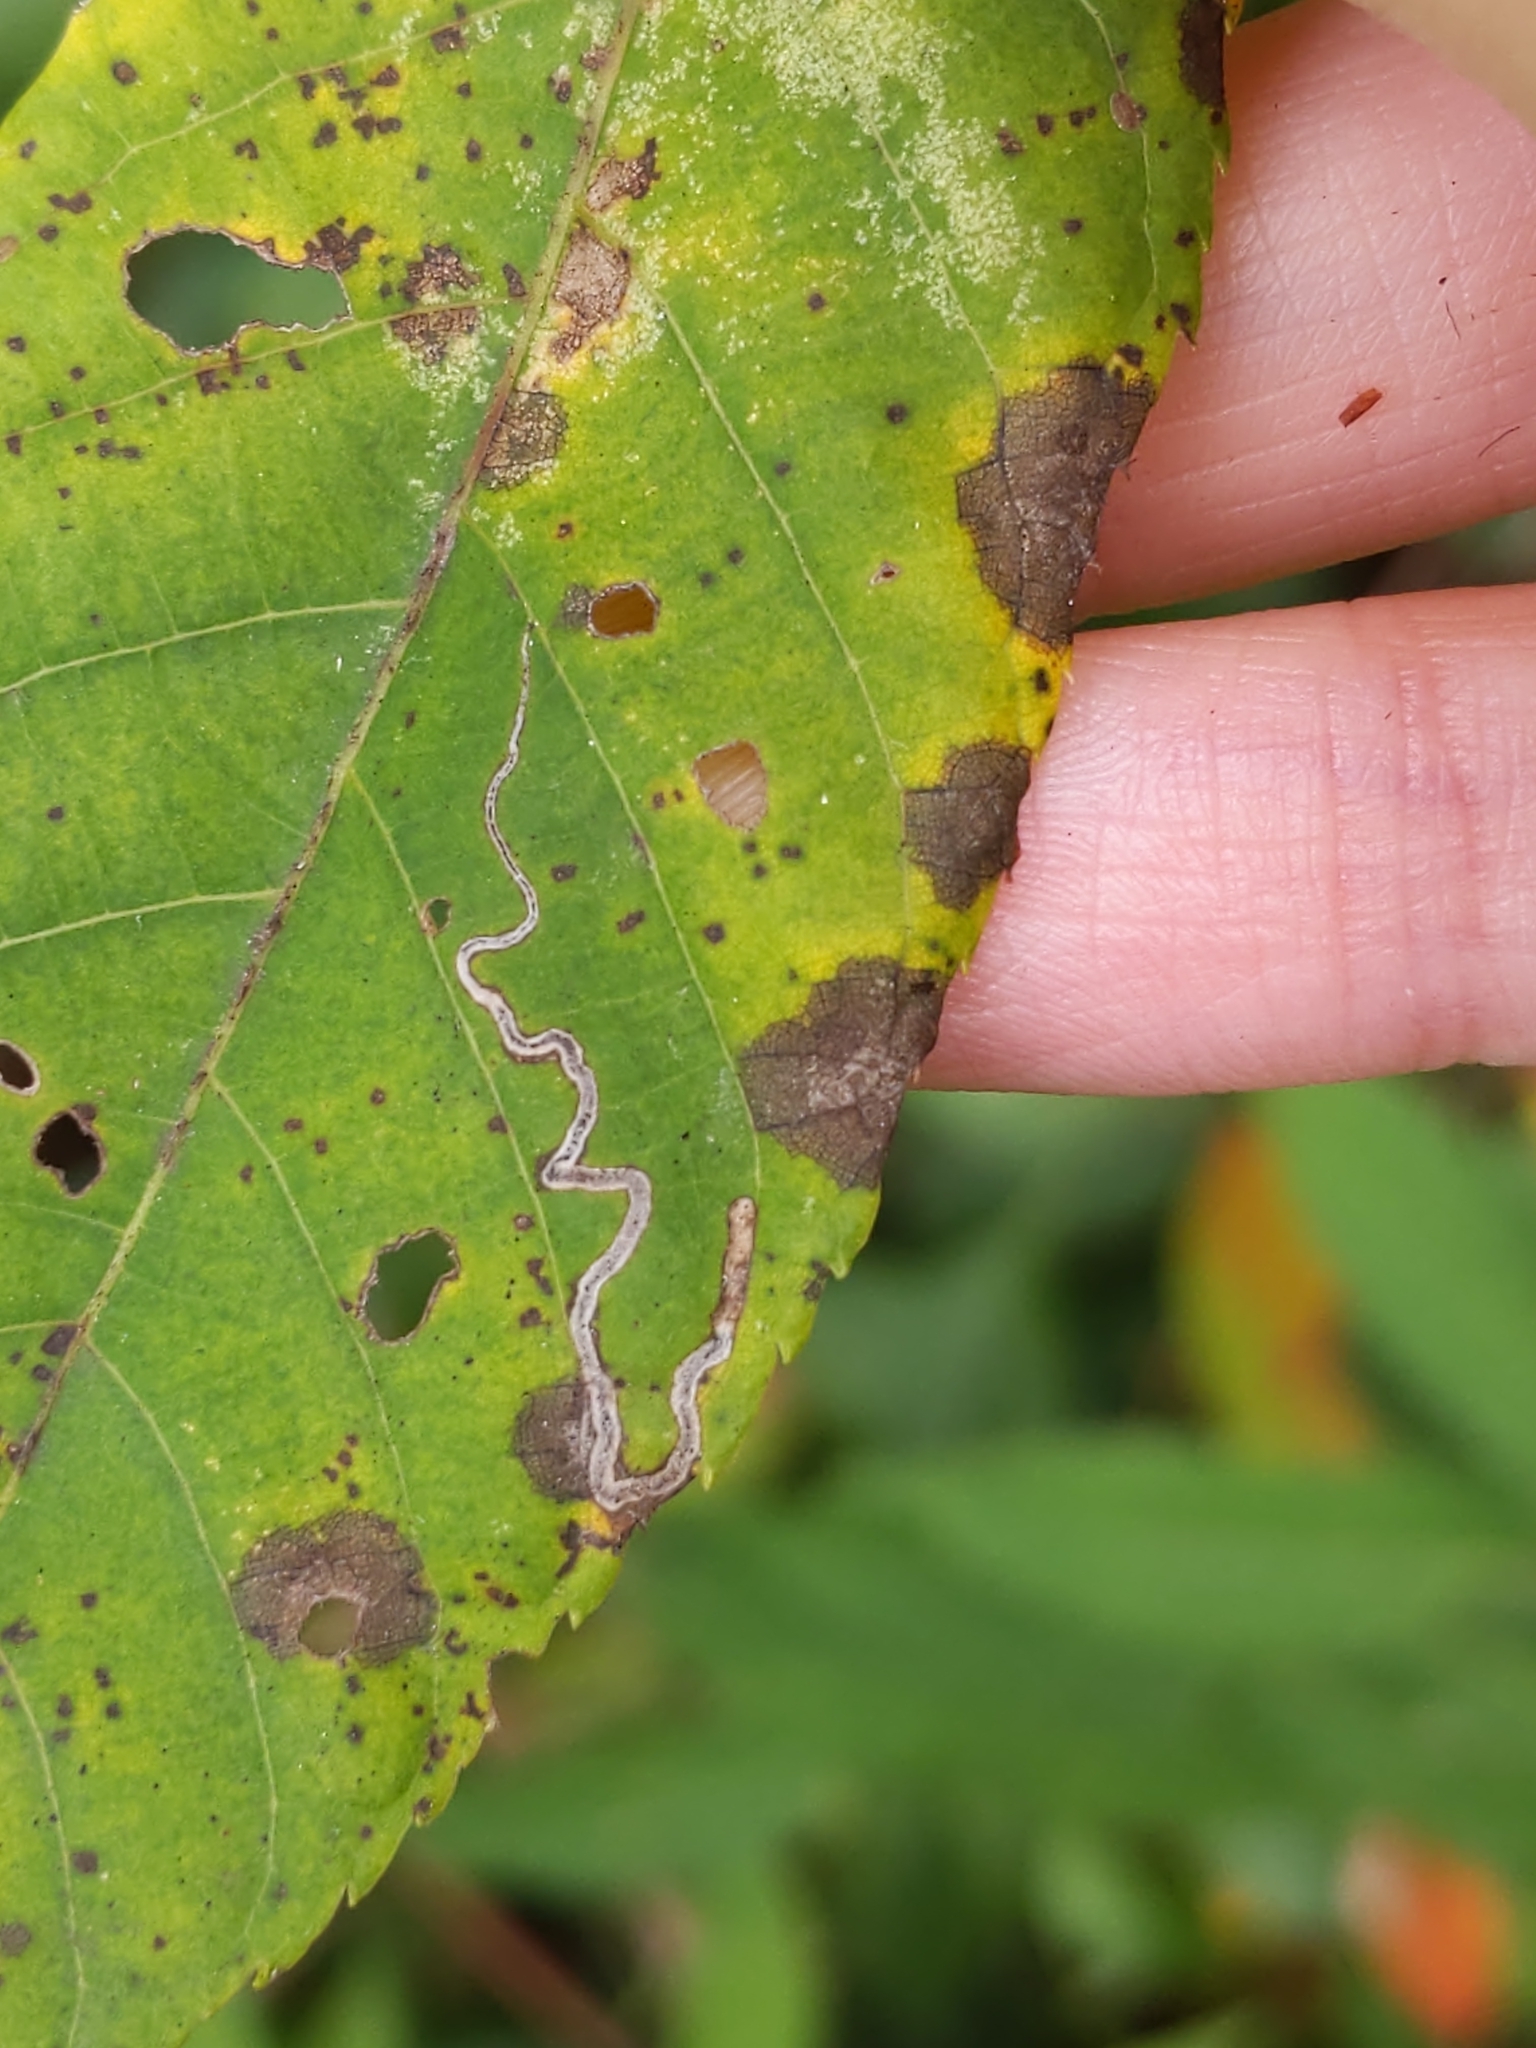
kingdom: Animalia
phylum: Arthropoda
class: Insecta
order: Lepidoptera
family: Nepticulidae
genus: Stigmella
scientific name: Stigmella juglandifoliella
